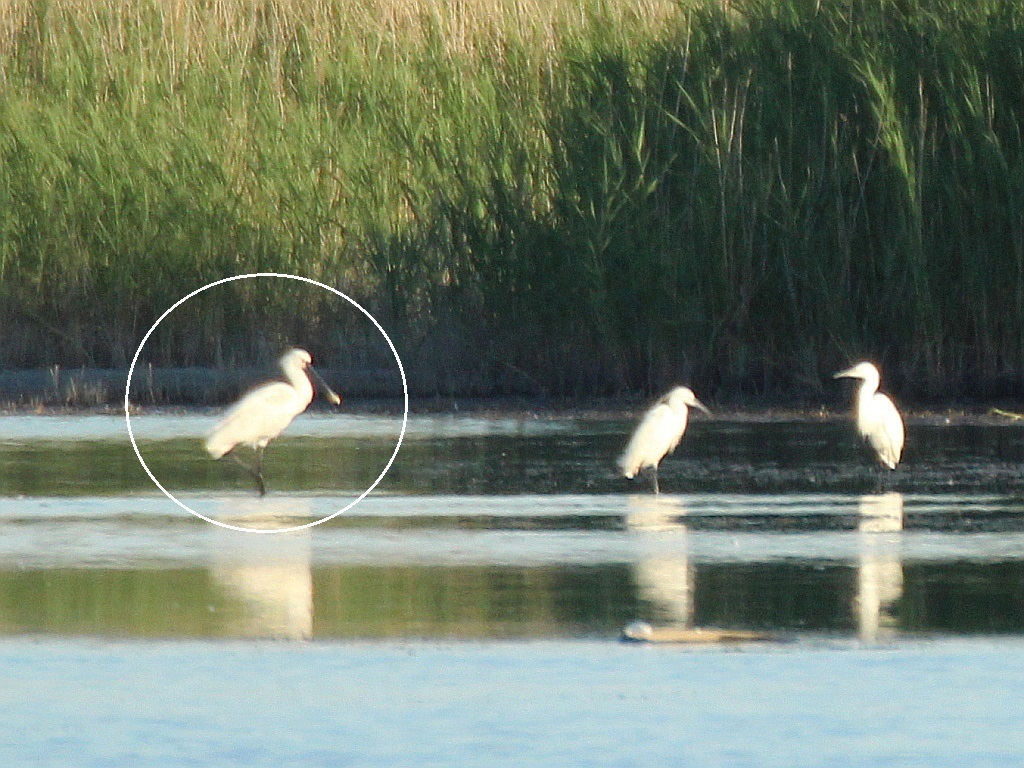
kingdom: Animalia
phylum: Chordata
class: Aves
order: Pelecaniformes
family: Threskiornithidae
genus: Platalea
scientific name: Platalea leucorodia
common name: Eurasian spoonbill
